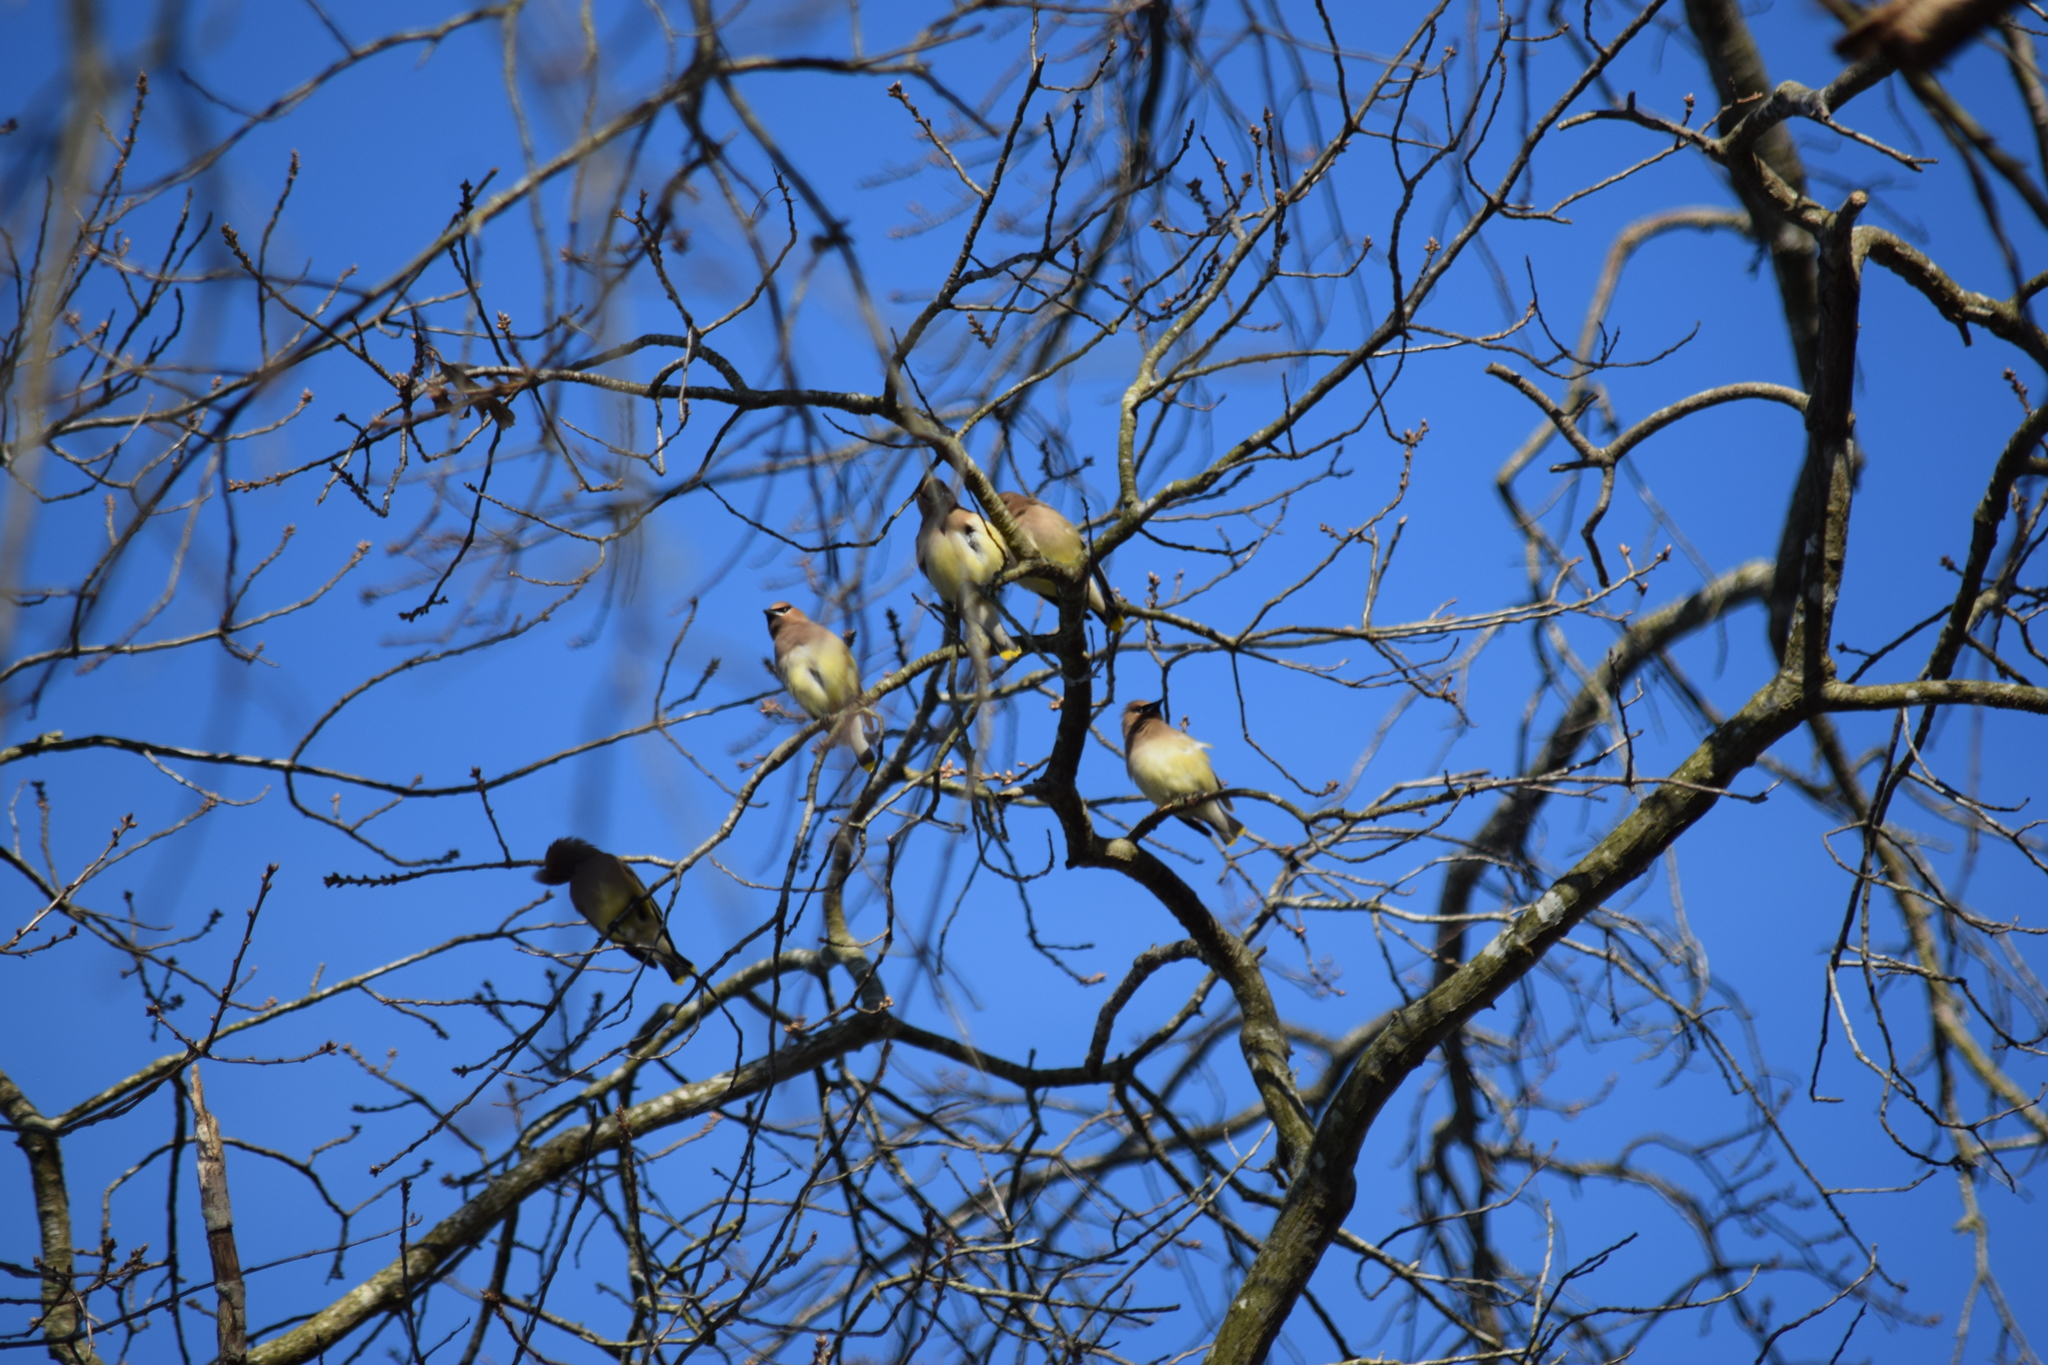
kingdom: Animalia
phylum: Chordata
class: Aves
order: Passeriformes
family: Bombycillidae
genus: Bombycilla
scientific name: Bombycilla cedrorum
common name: Cedar waxwing
